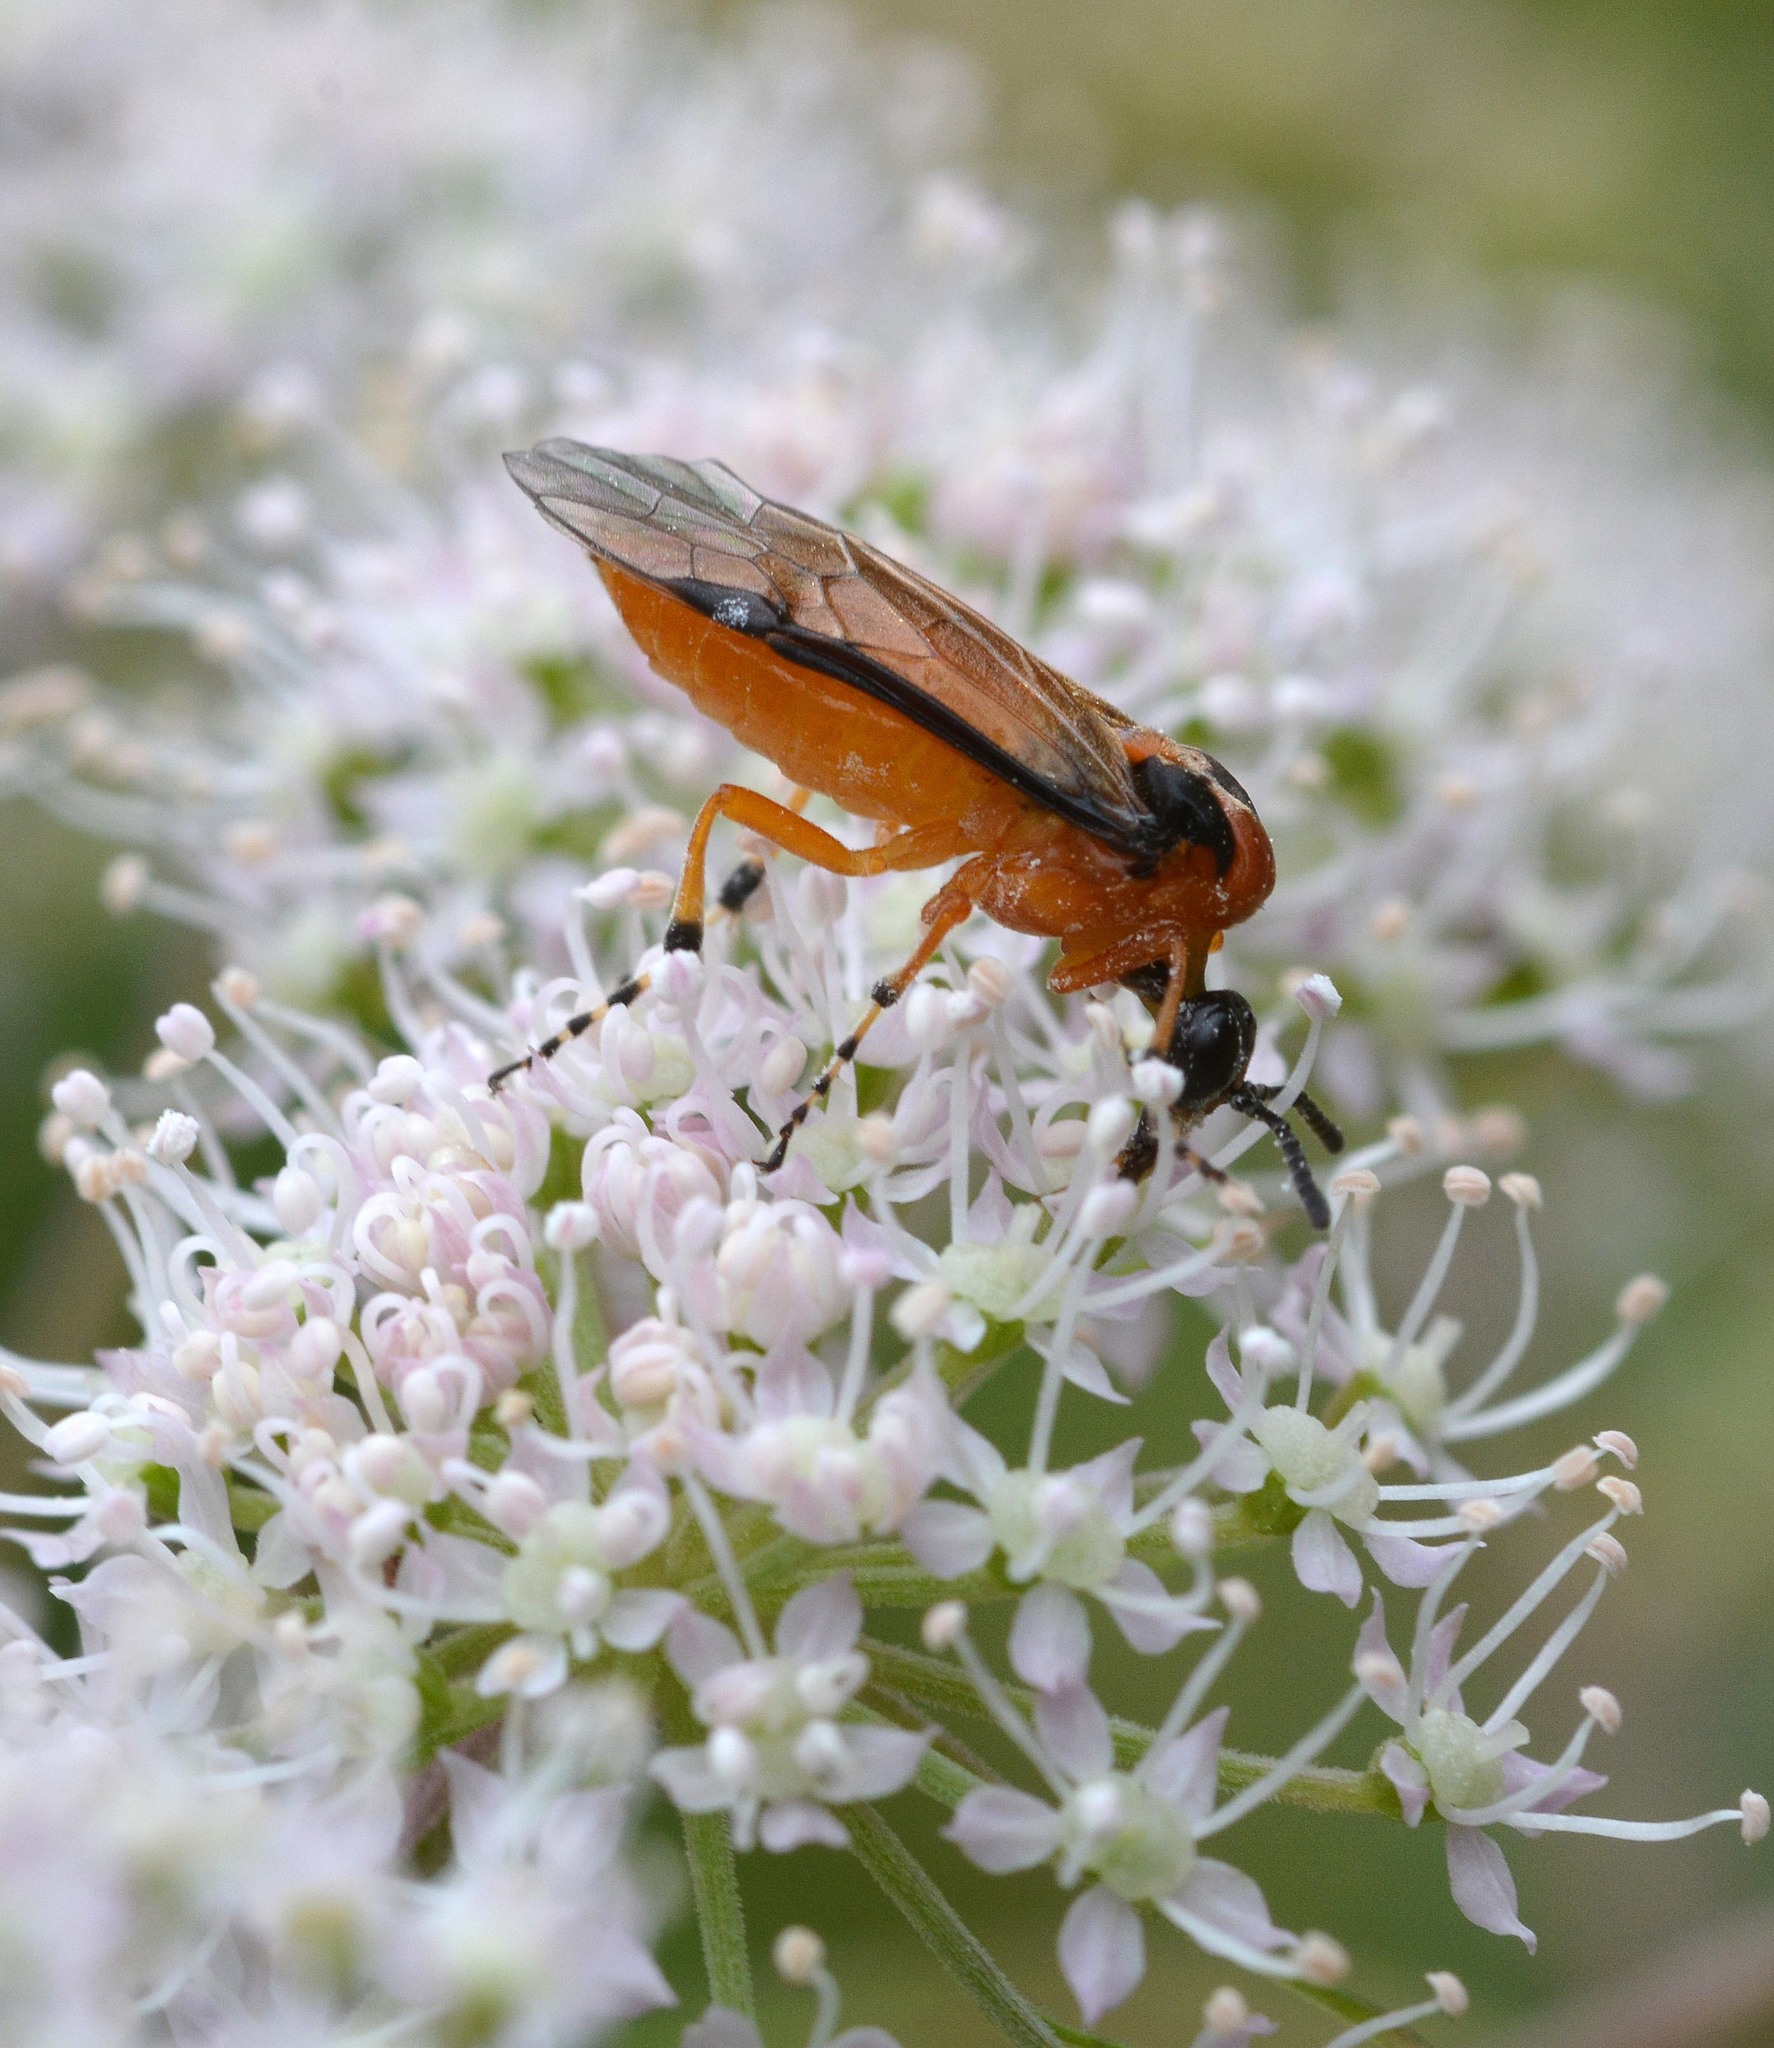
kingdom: Animalia
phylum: Arthropoda
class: Insecta
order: Hymenoptera
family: Tenthredinidae
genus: Athalia
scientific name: Athalia rosae
